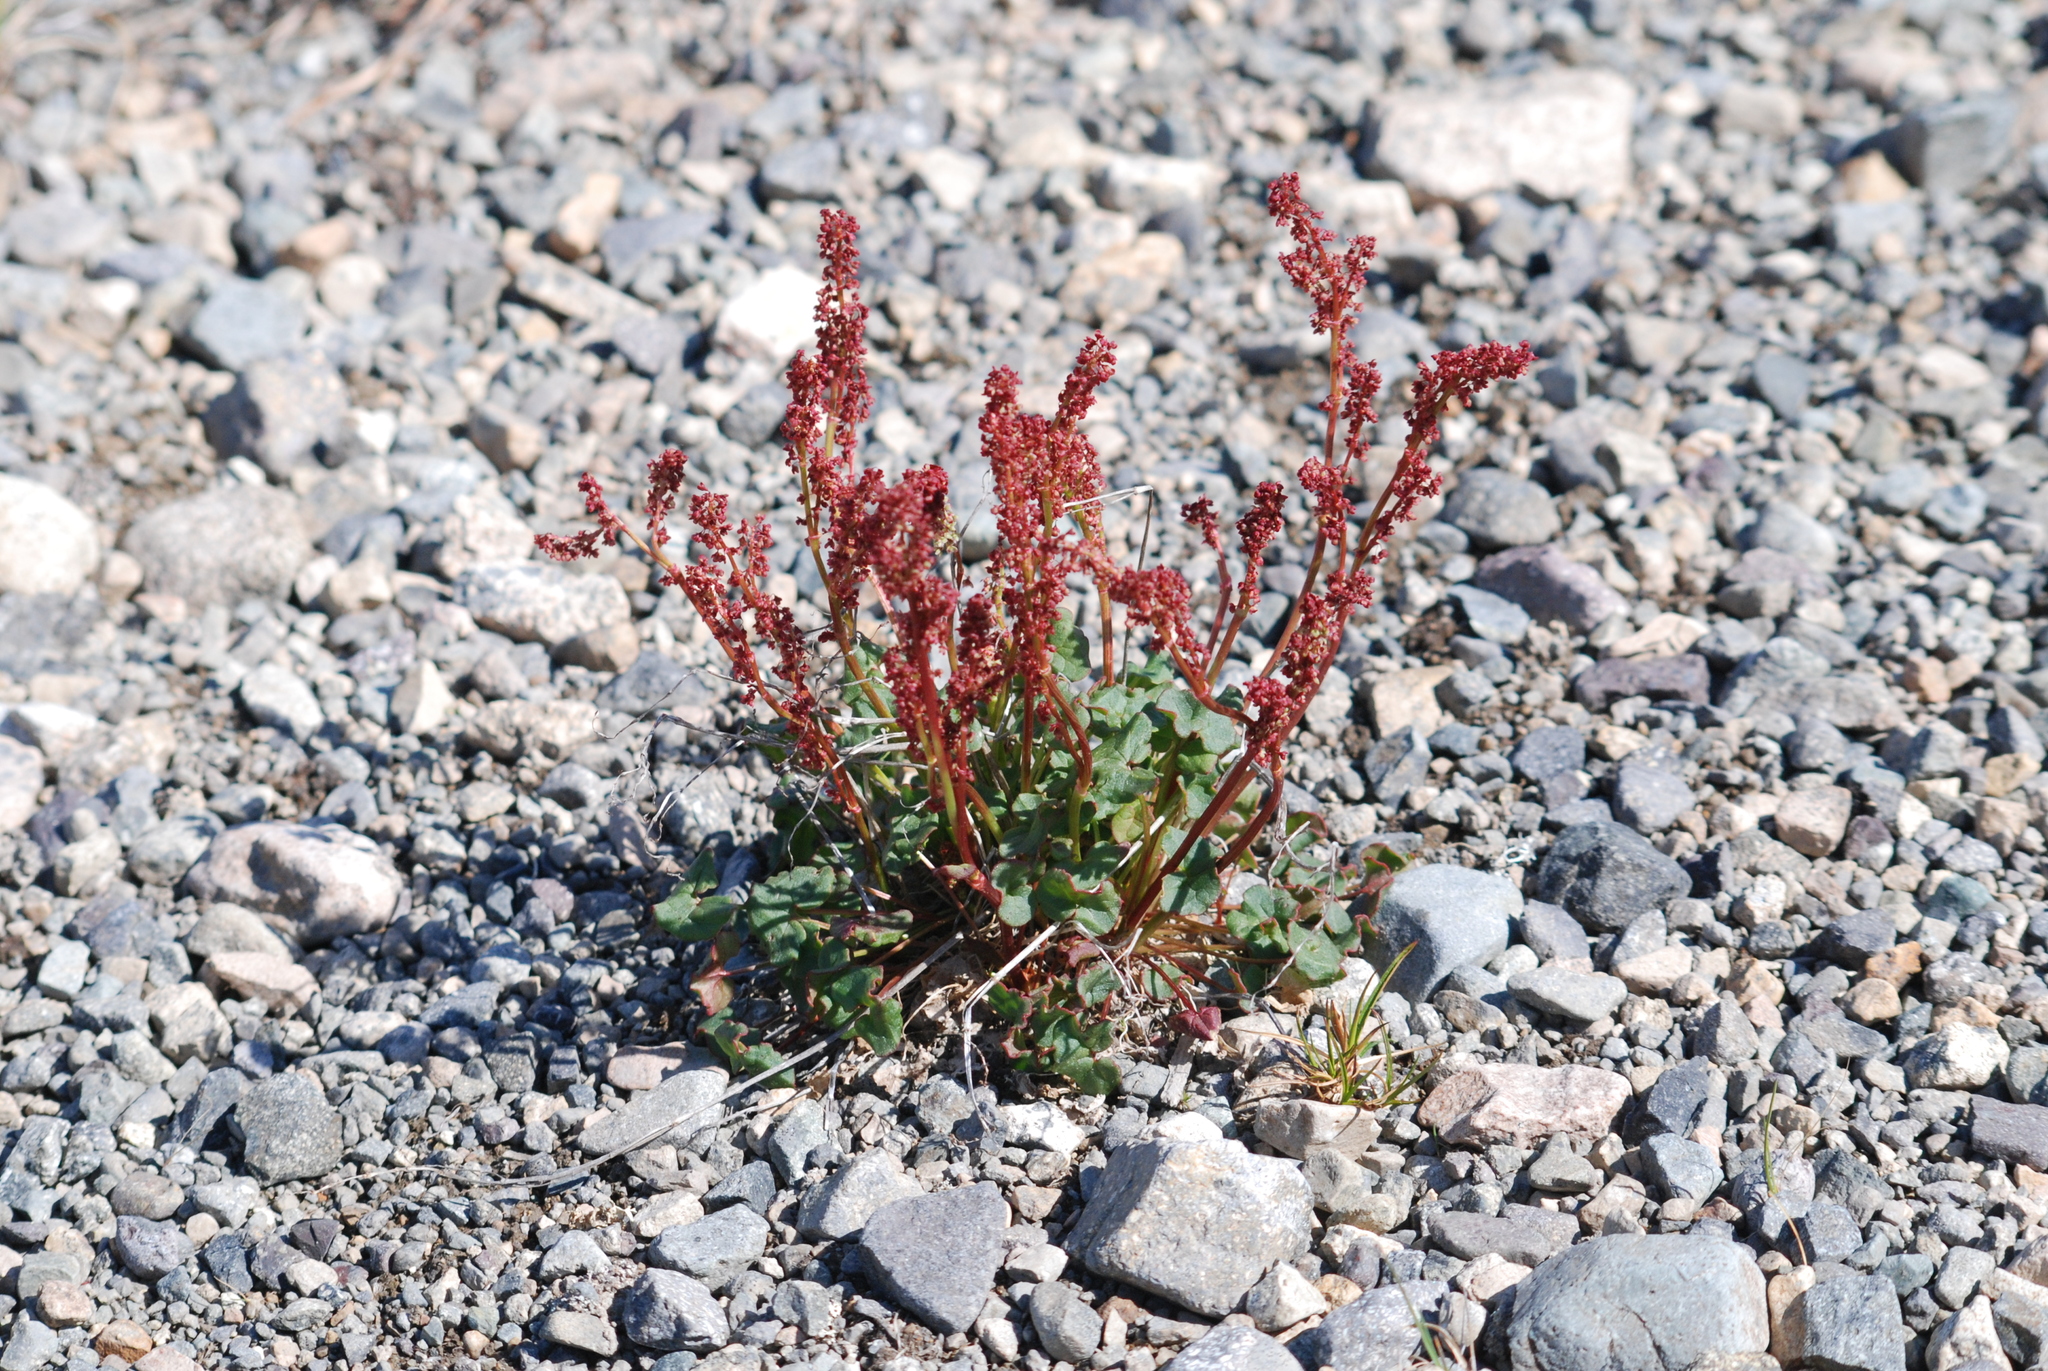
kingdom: Plantae
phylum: Tracheophyta
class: Magnoliopsida
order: Caryophyllales
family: Polygonaceae
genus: Oxyria
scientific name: Oxyria digyna
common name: Alpine mountain-sorrel
